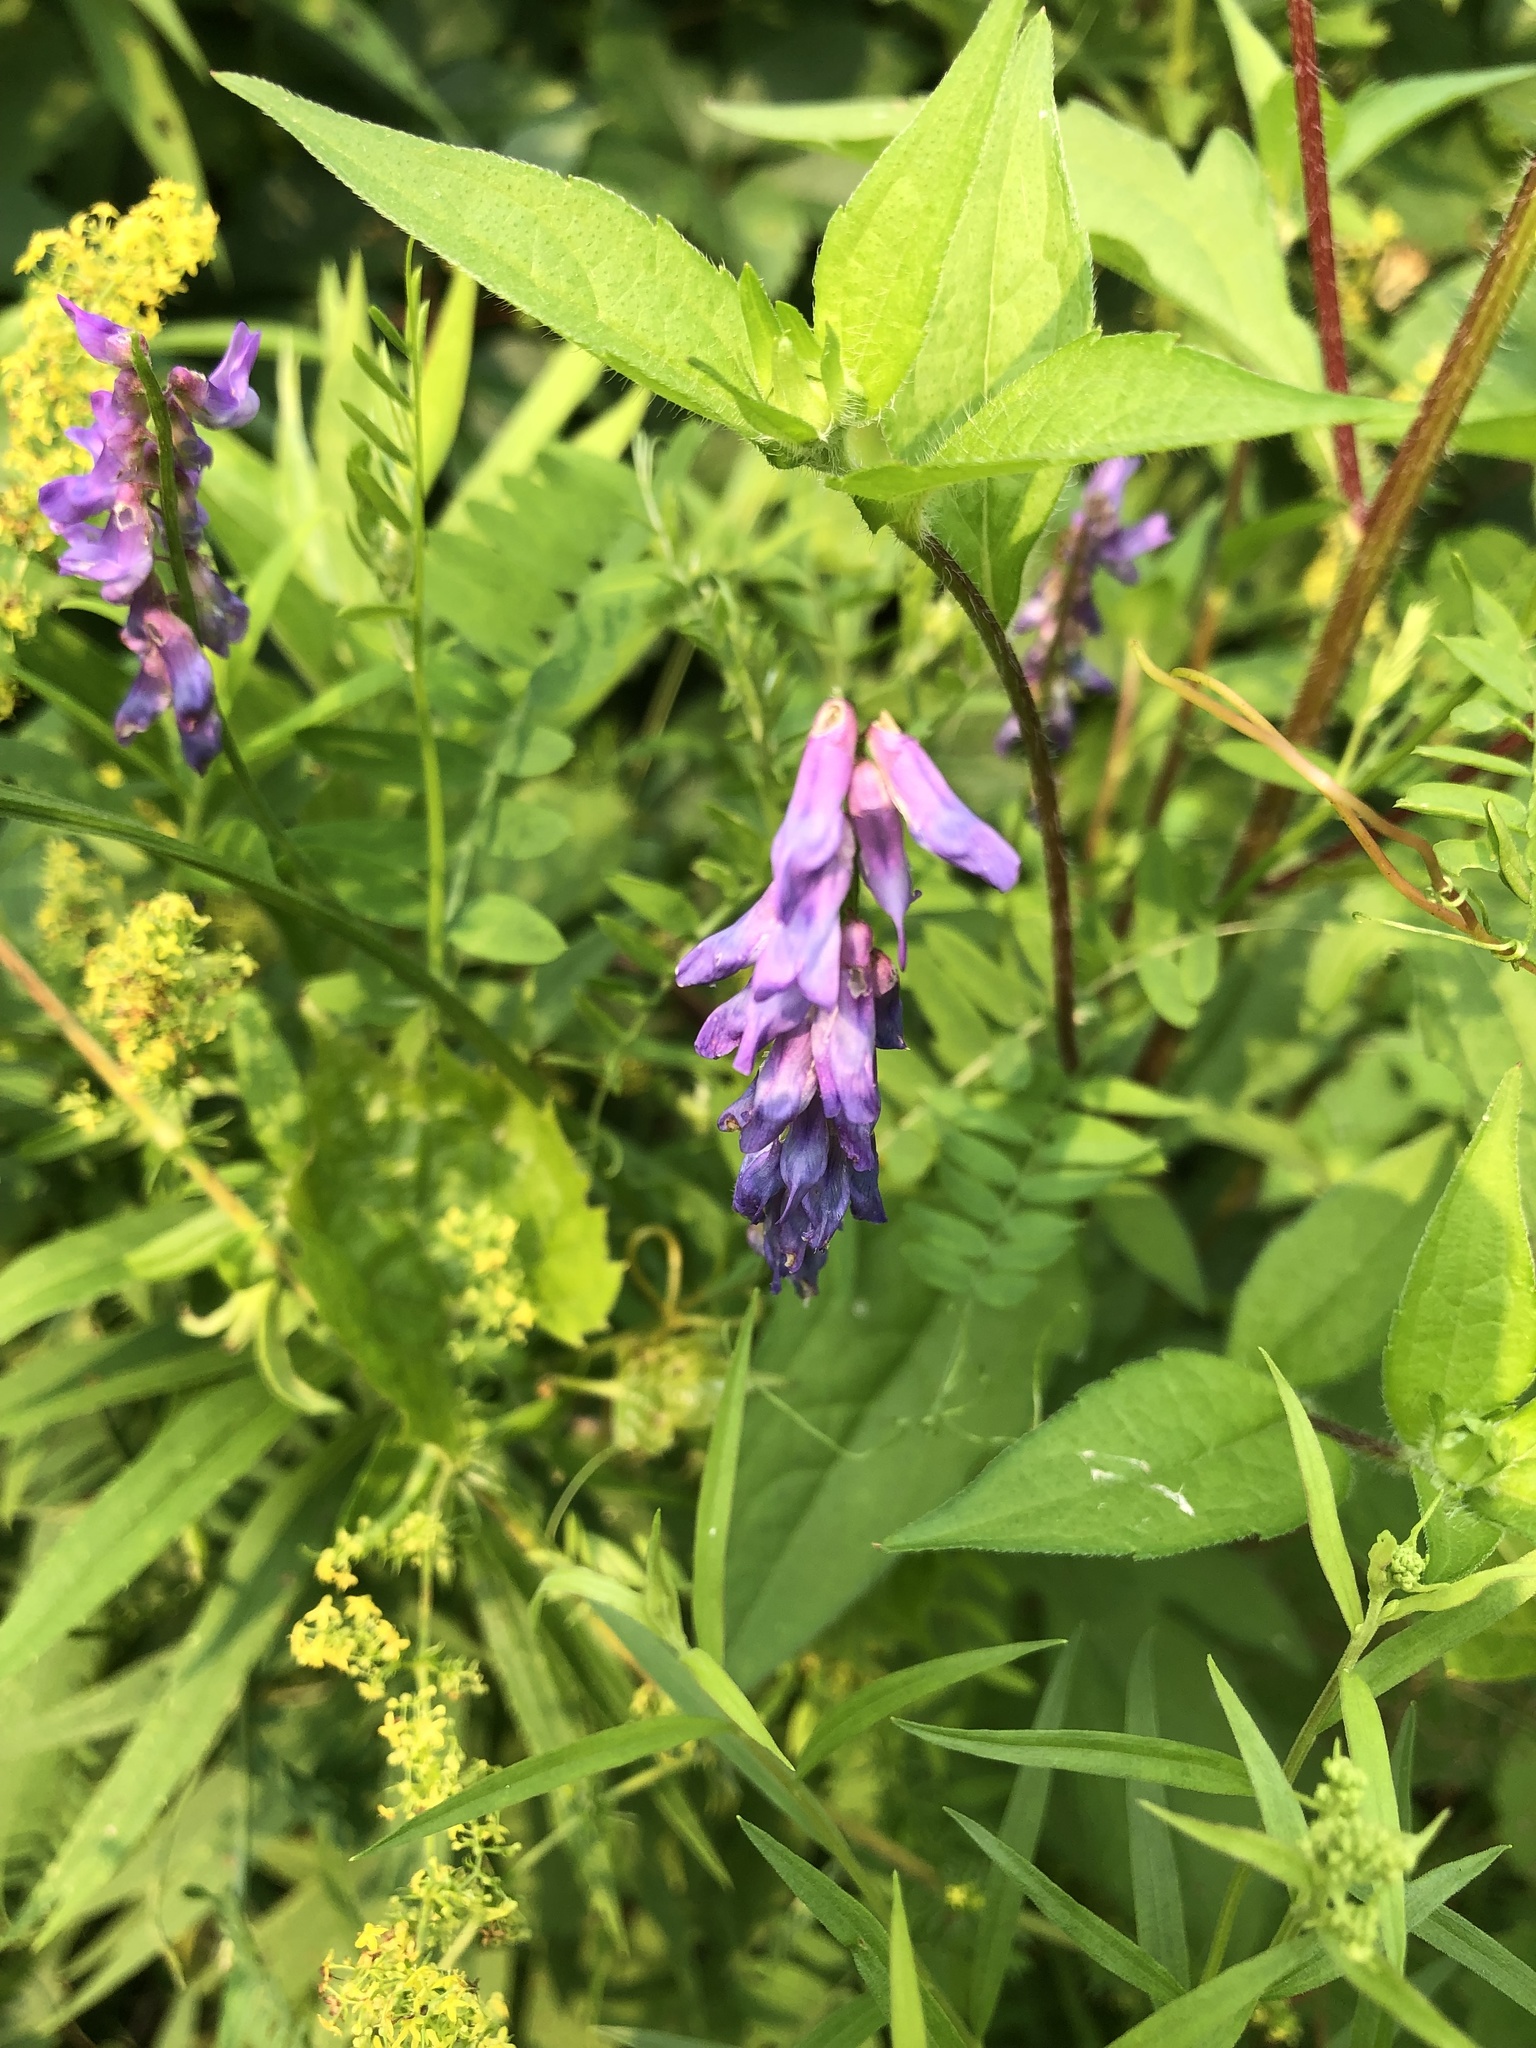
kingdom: Plantae
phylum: Tracheophyta
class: Magnoliopsida
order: Fabales
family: Fabaceae
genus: Vicia
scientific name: Vicia cracca
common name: Bird vetch
